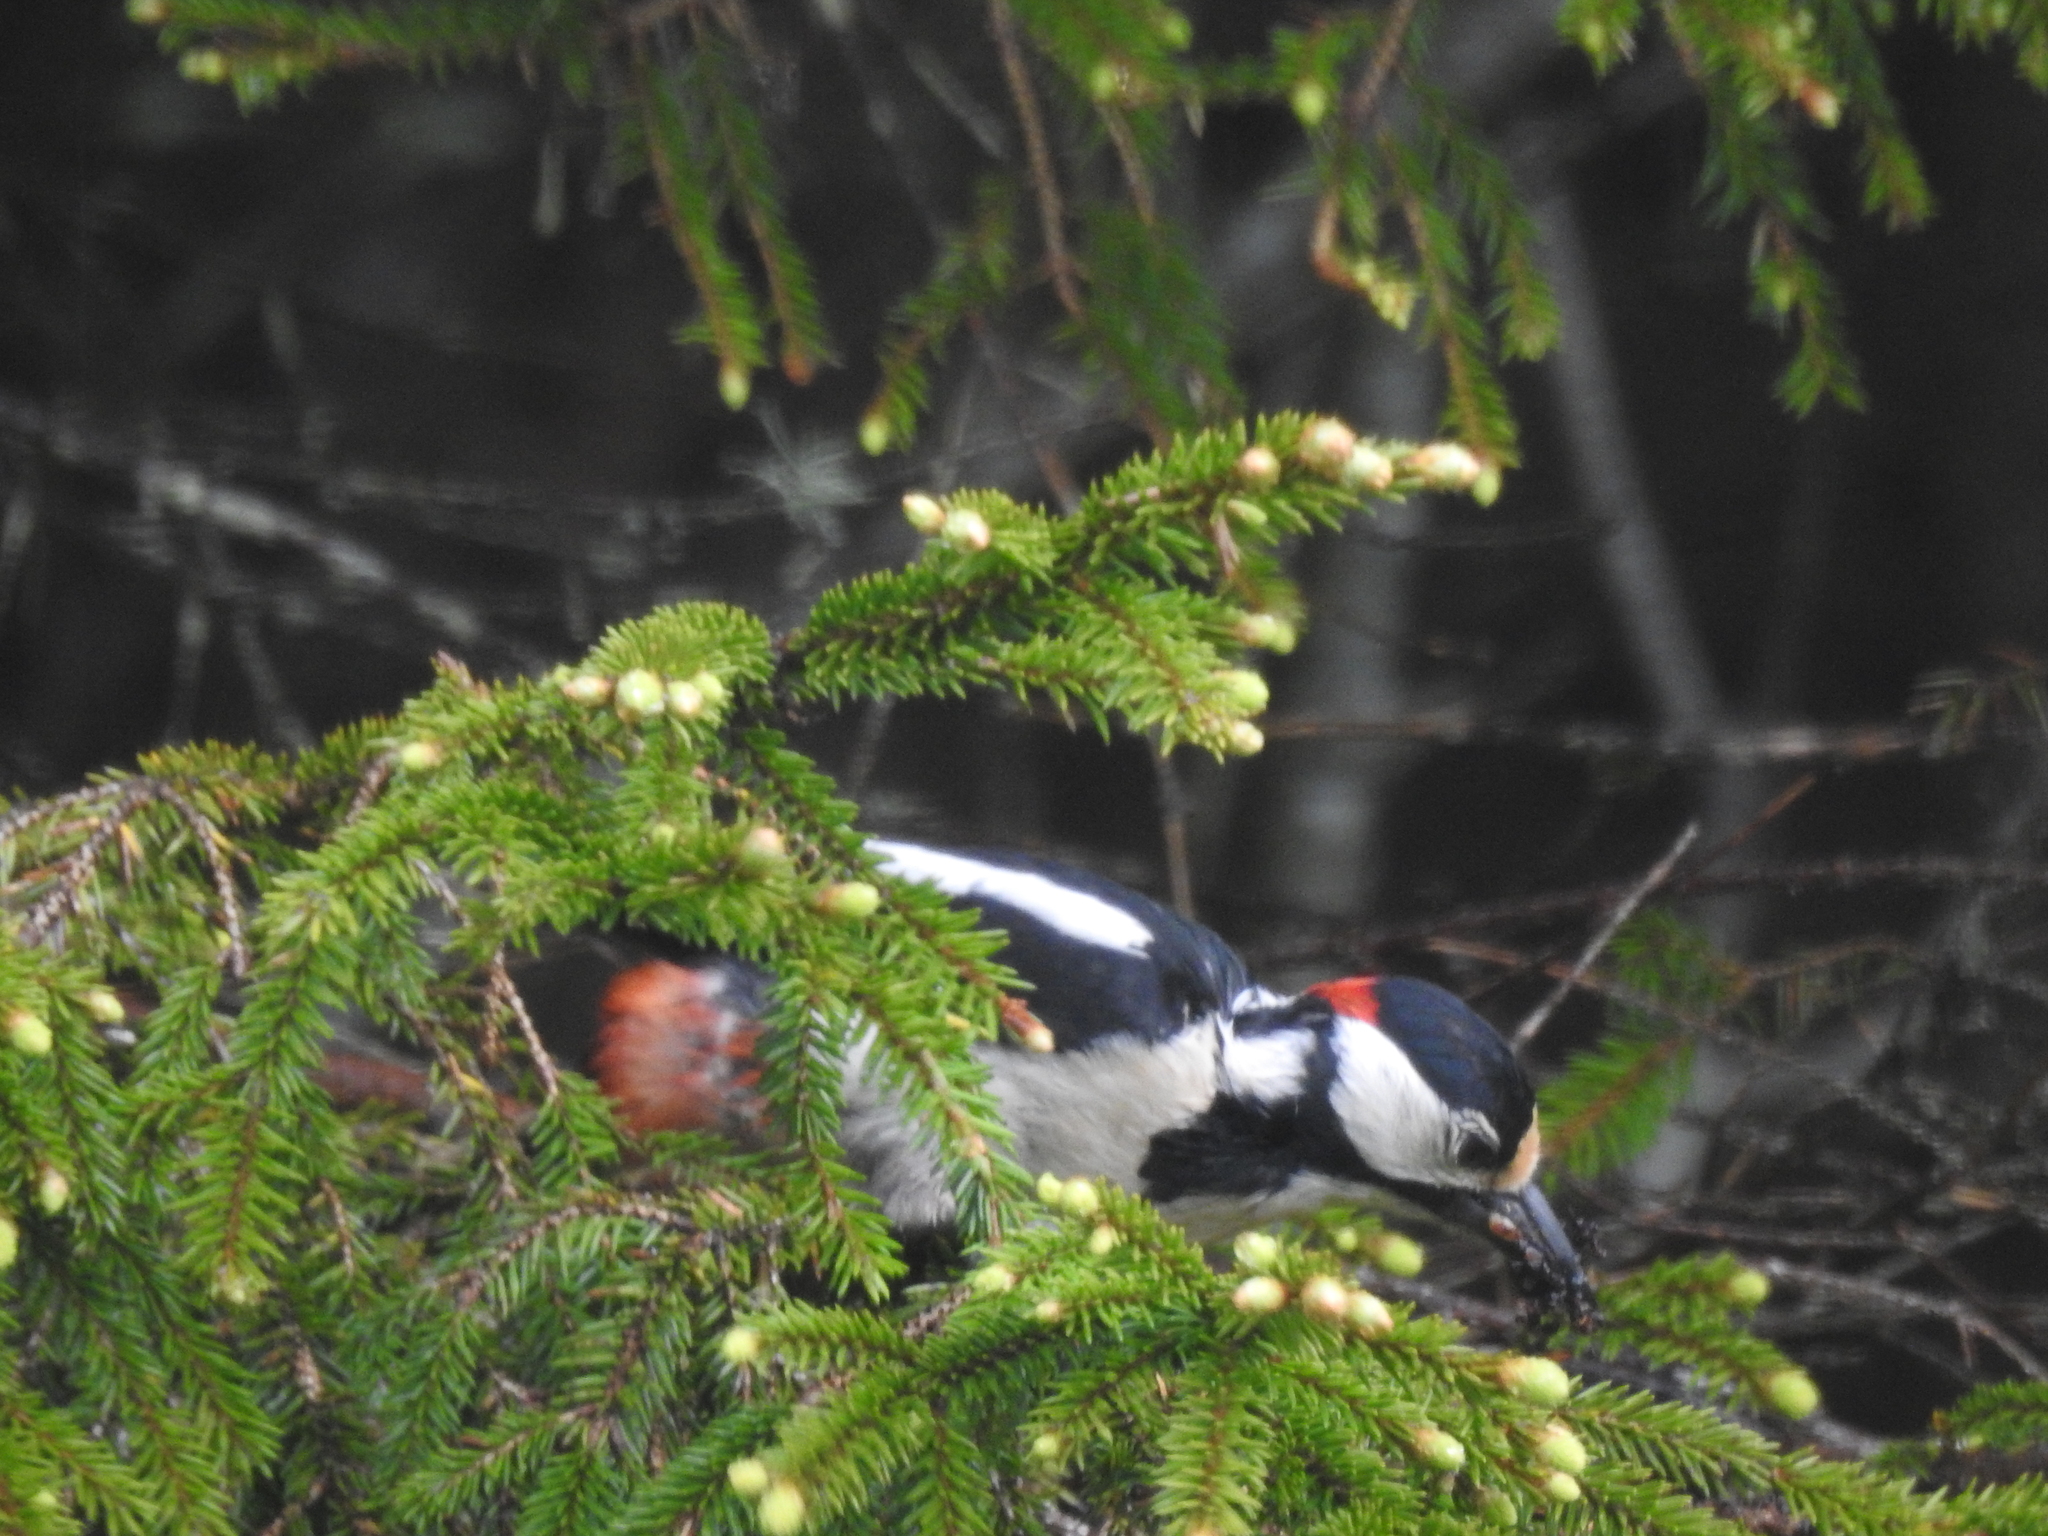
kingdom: Animalia
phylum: Chordata
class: Aves
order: Piciformes
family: Picidae
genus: Dendrocopos
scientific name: Dendrocopos major
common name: Great spotted woodpecker
